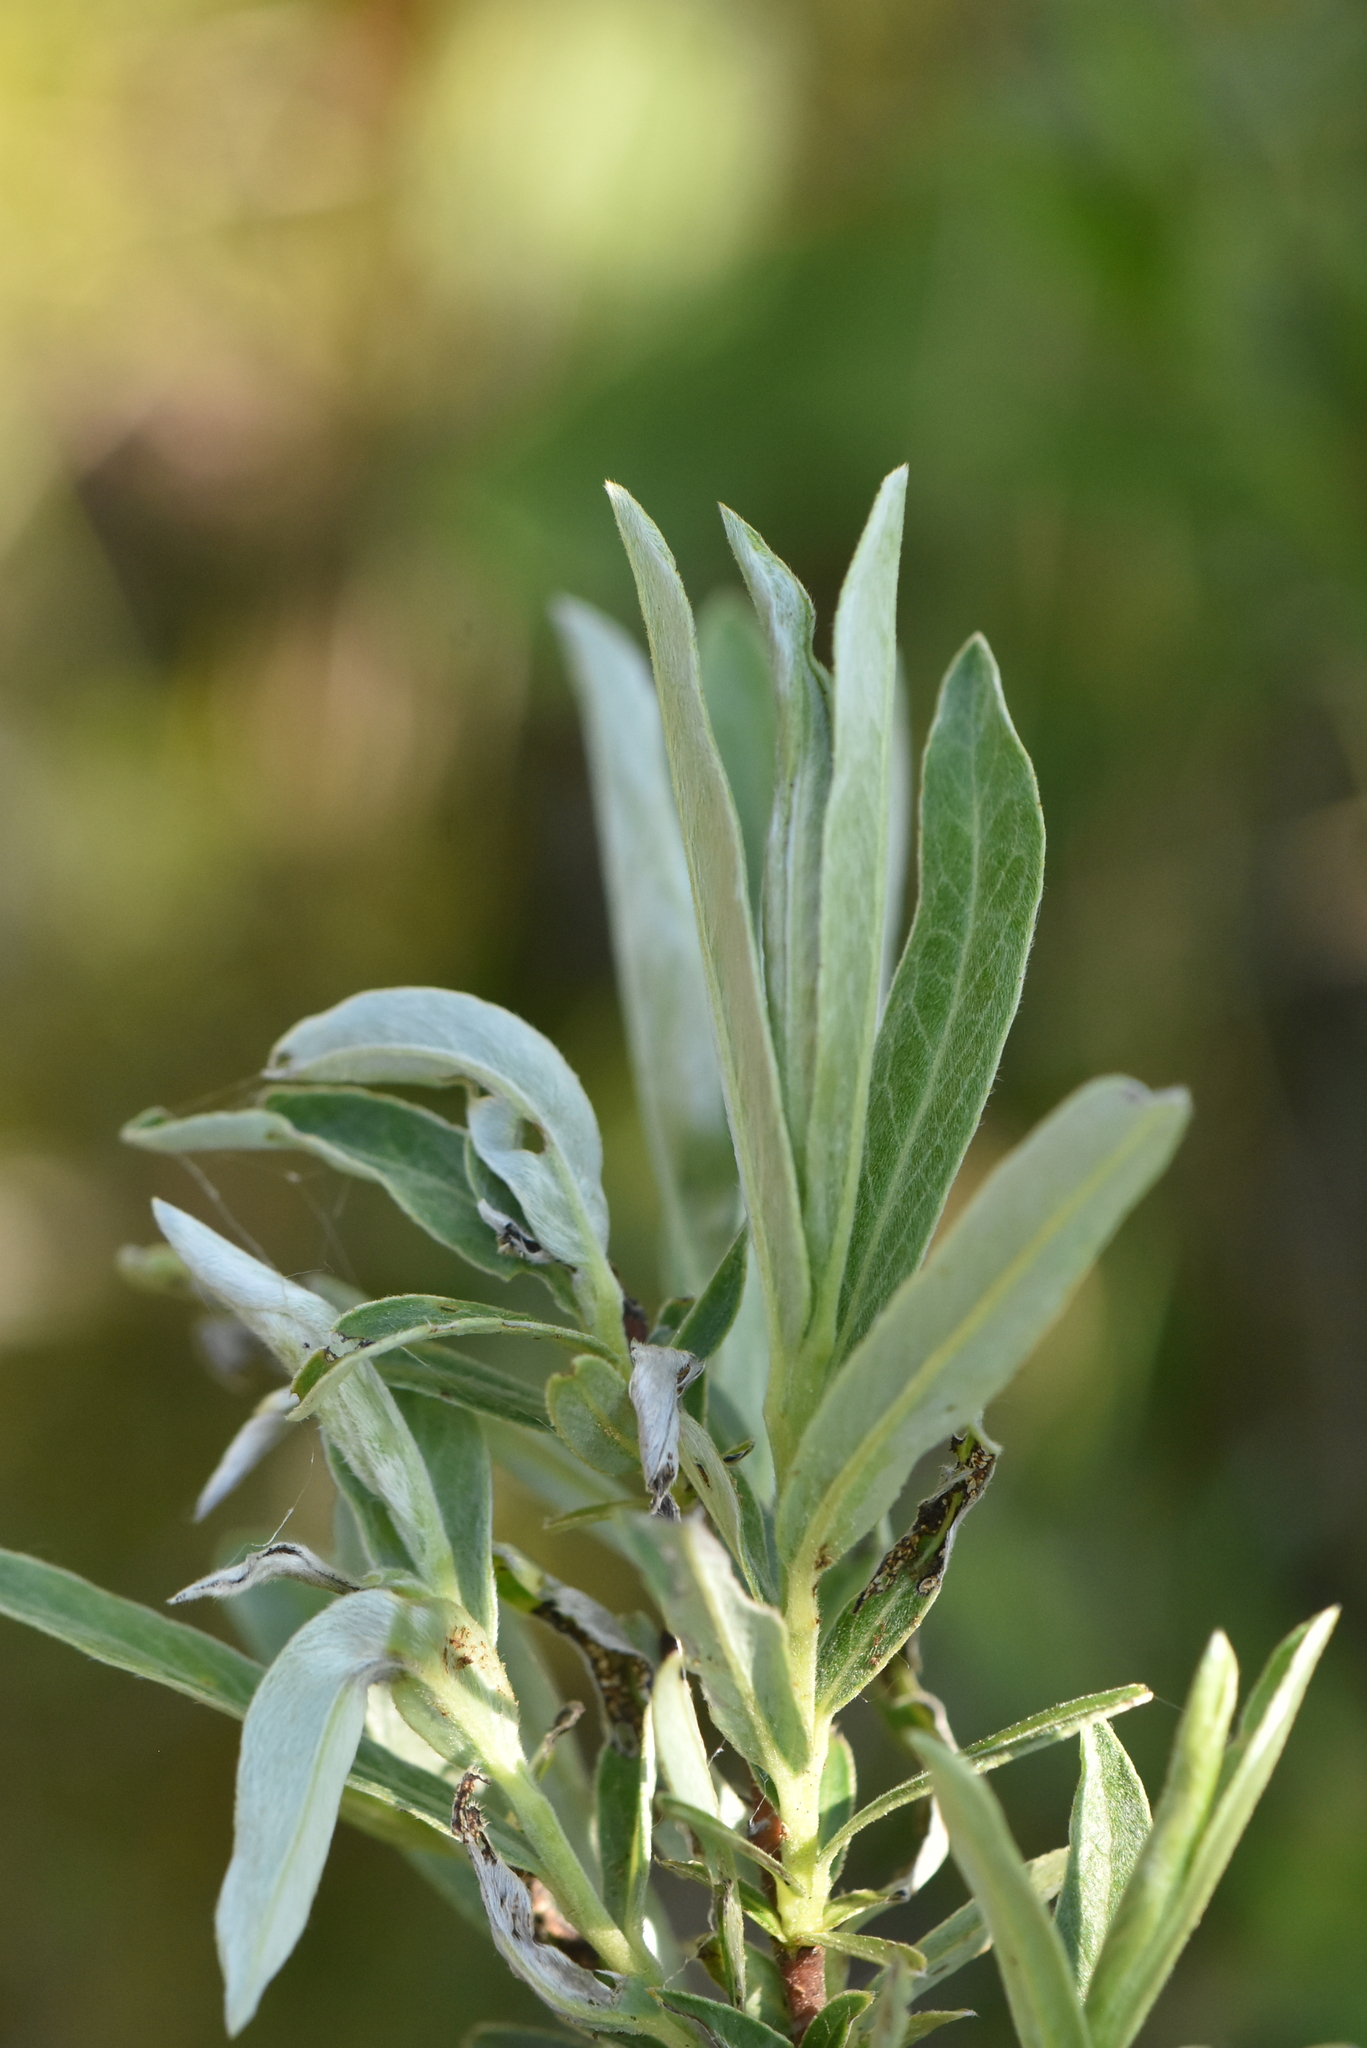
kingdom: Plantae
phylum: Tracheophyta
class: Magnoliopsida
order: Malpighiales
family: Salicaceae
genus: Salix
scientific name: Salix rosmarinifolia
